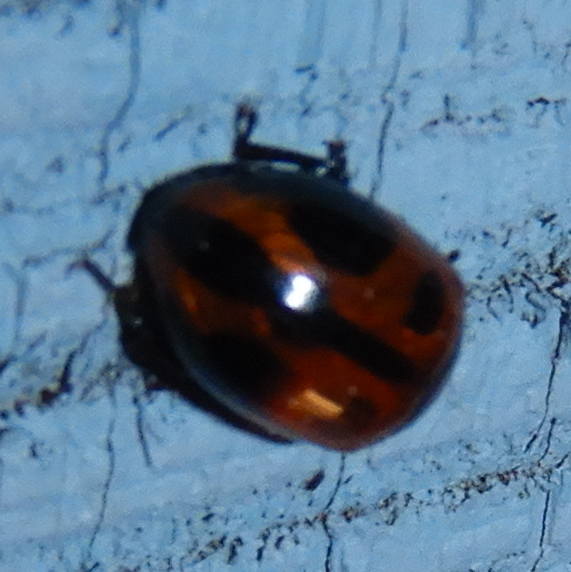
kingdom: Animalia
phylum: Arthropoda
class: Insecta
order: Coleoptera
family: Tenebrionidae
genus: Diaperis
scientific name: Diaperis maculata
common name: Darkling beetle
